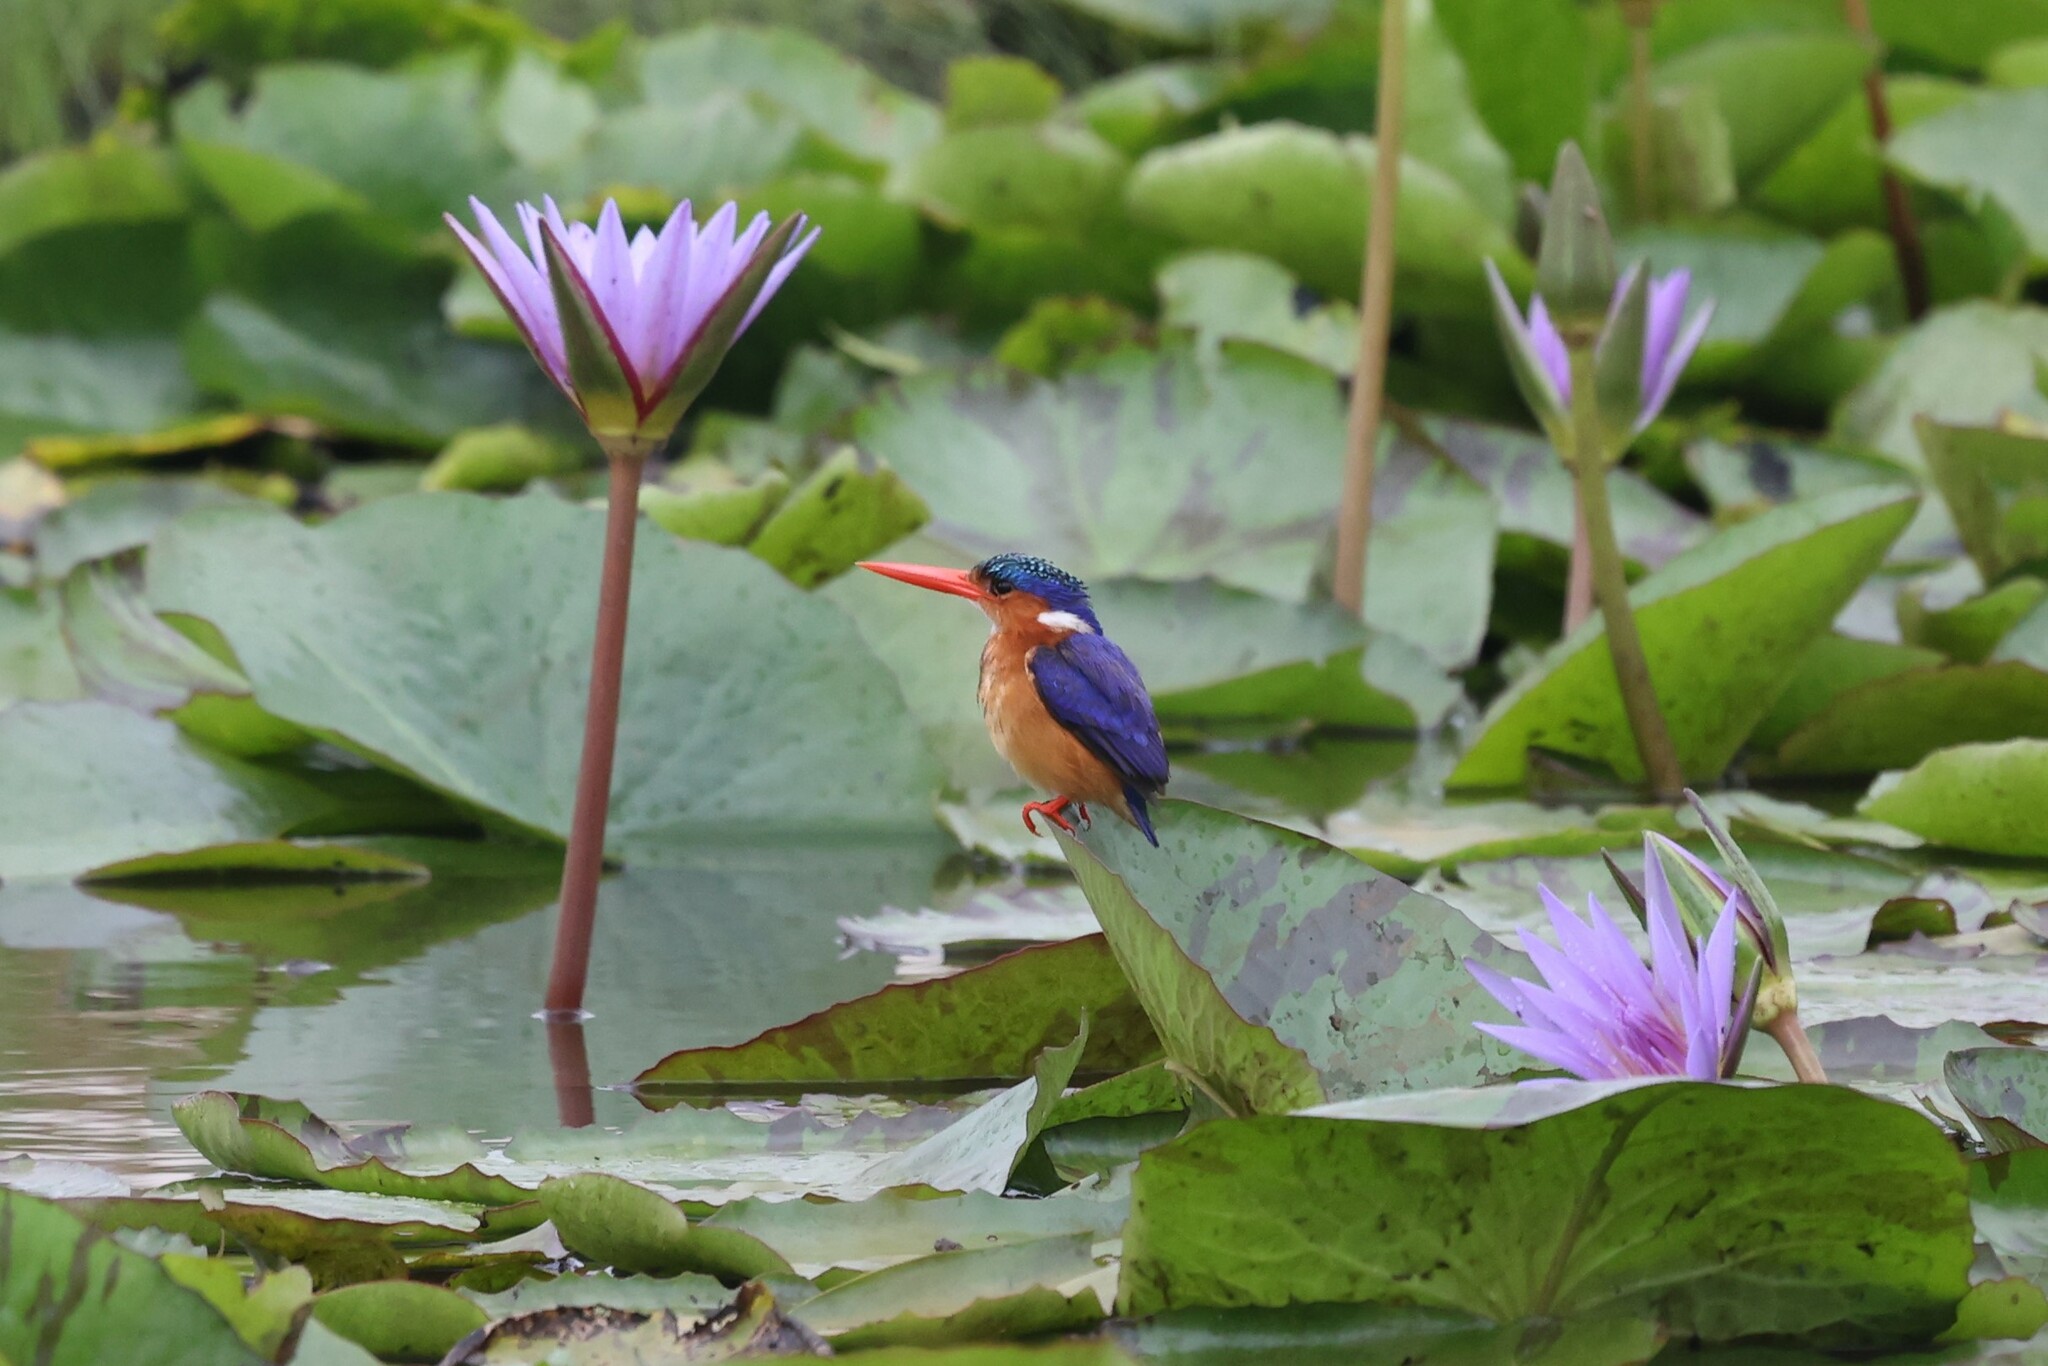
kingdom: Animalia
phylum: Chordata
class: Aves
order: Coraciiformes
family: Alcedinidae
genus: Corythornis
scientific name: Corythornis cristatus
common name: Malachite kingfisher
